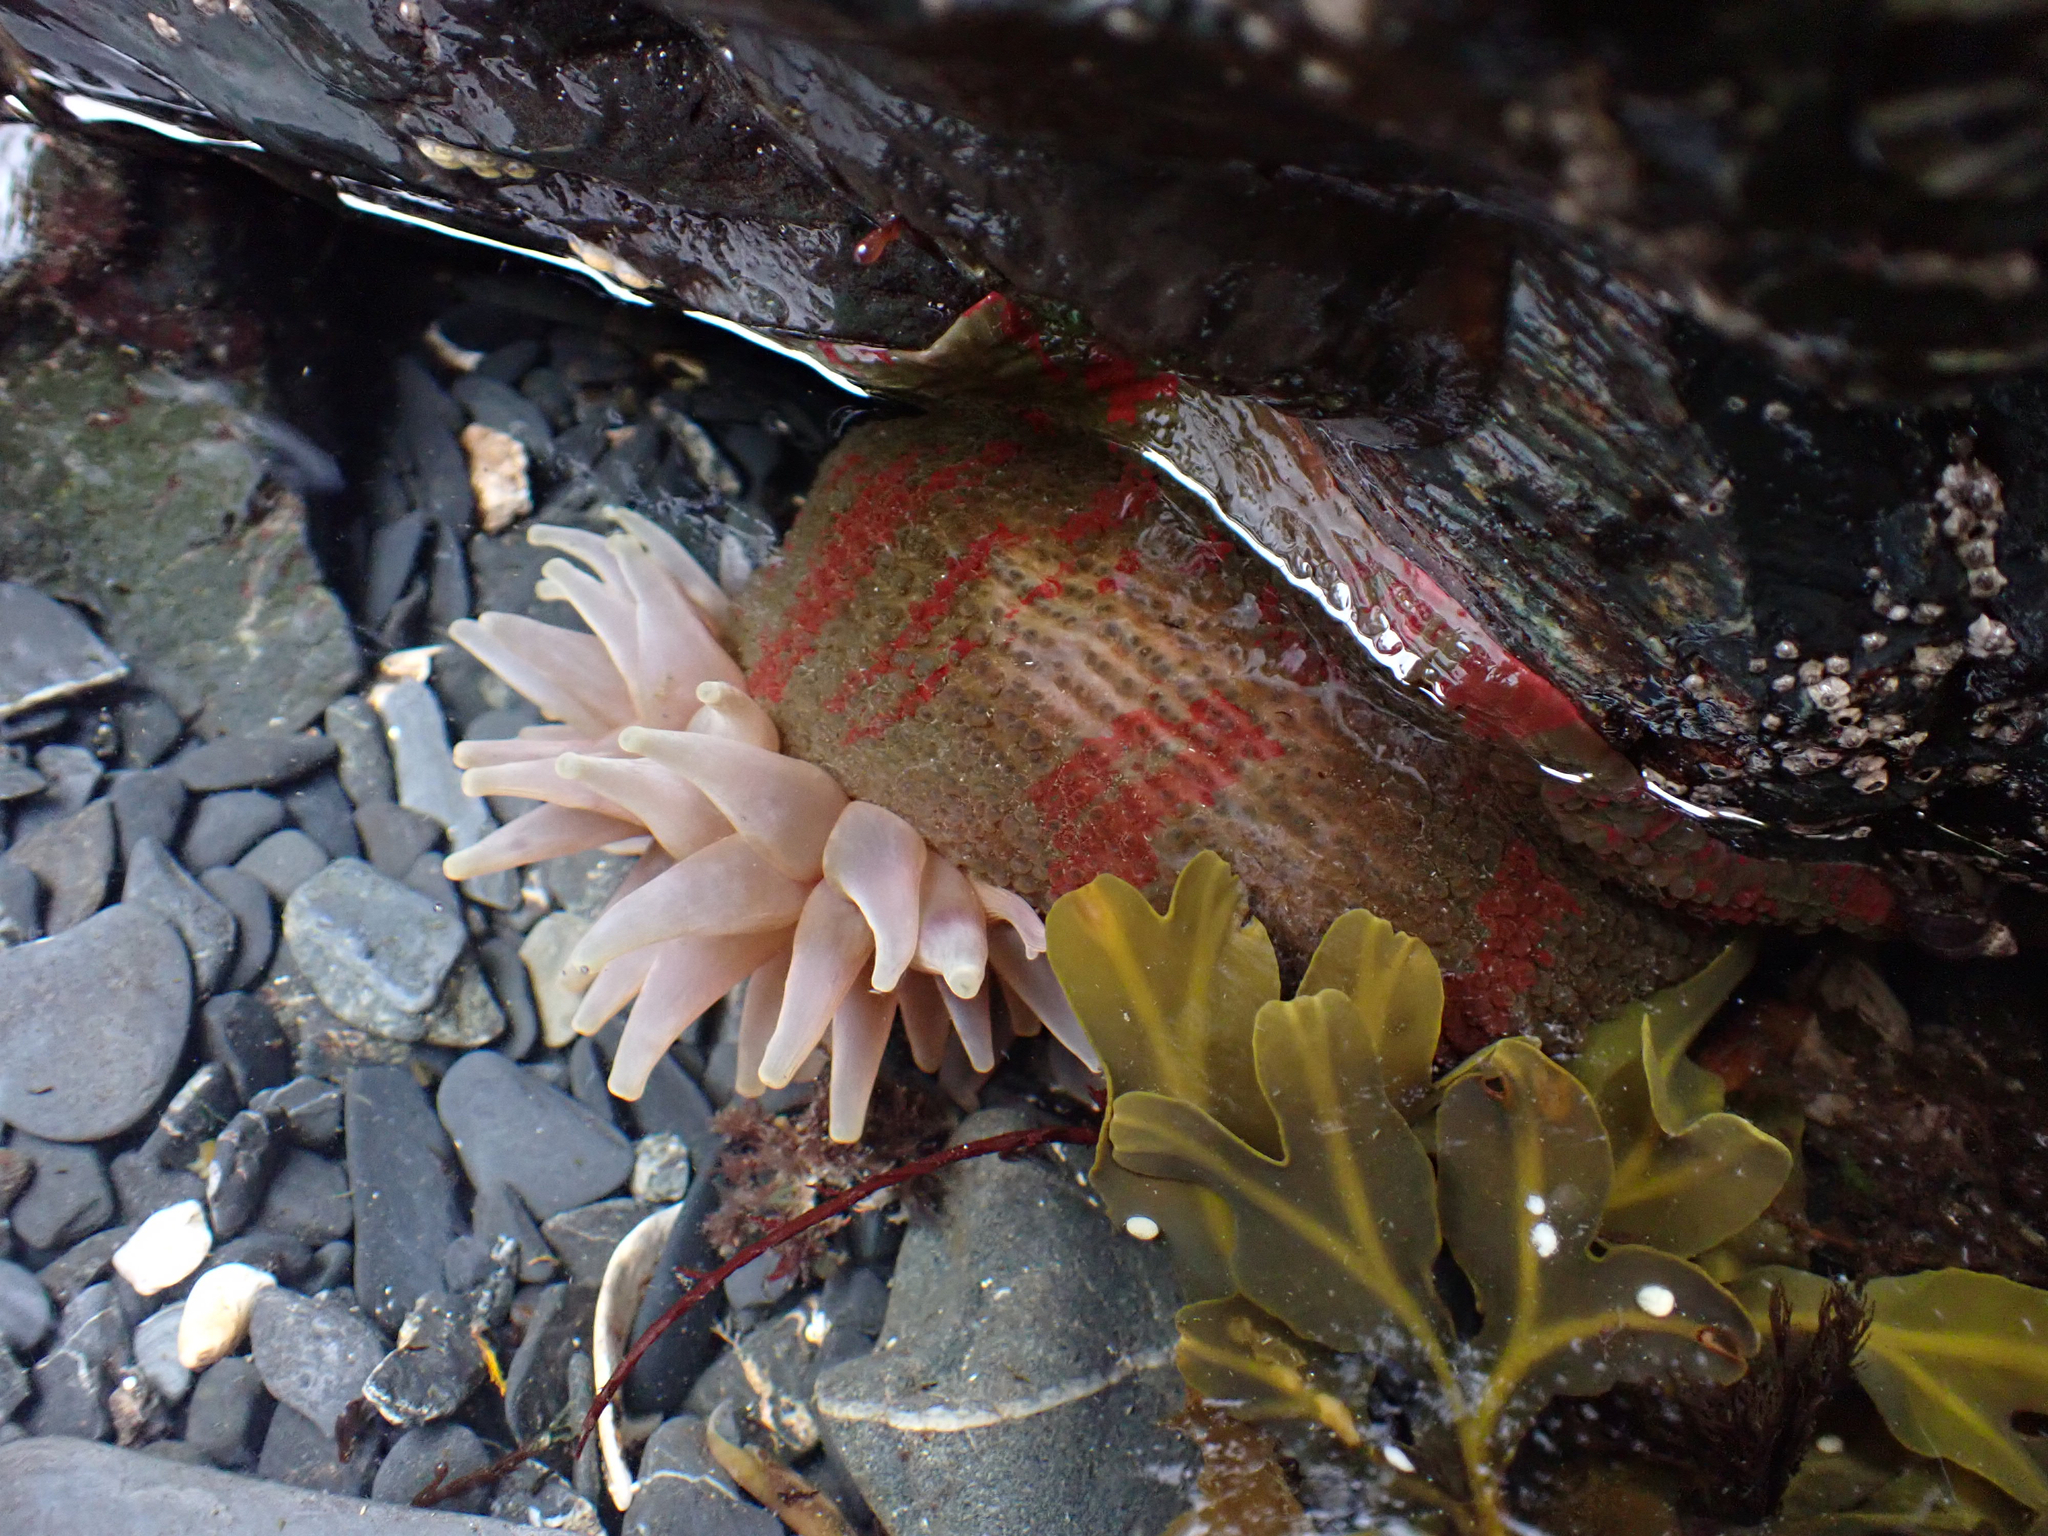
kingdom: Animalia
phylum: Cnidaria
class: Anthozoa
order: Actiniaria
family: Actiniidae
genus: Urticina
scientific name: Urticina grebelnyi
